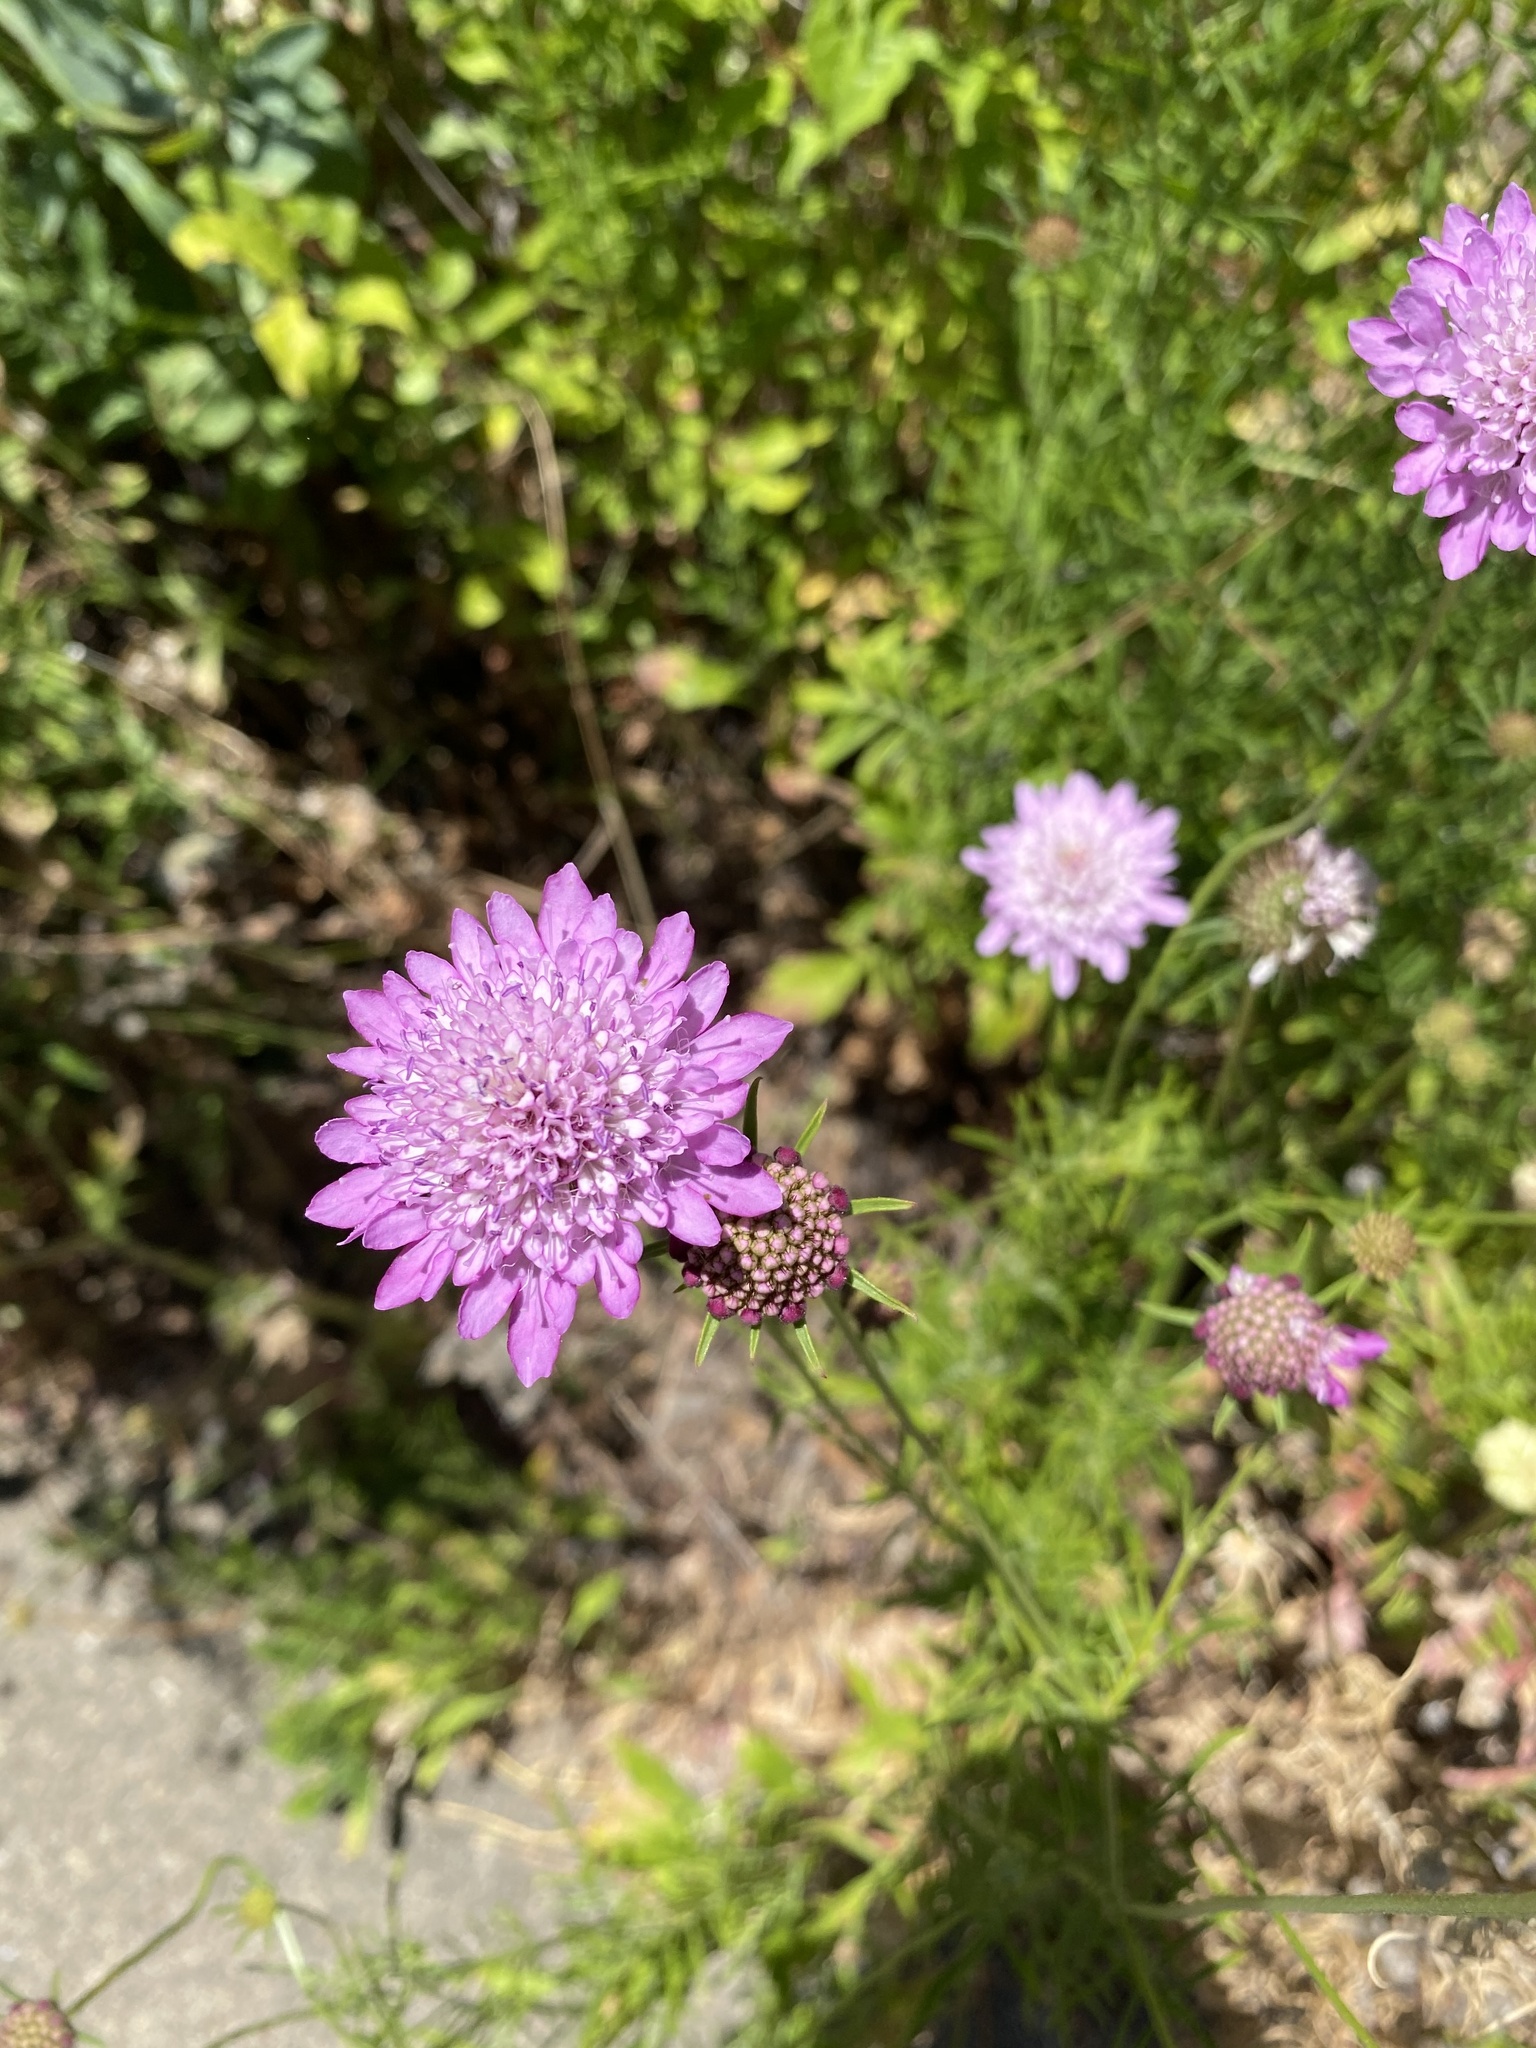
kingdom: Plantae
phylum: Tracheophyta
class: Magnoliopsida
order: Dipsacales
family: Caprifoliaceae
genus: Sixalix
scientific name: Sixalix atropurpurea
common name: Sweet scabious
